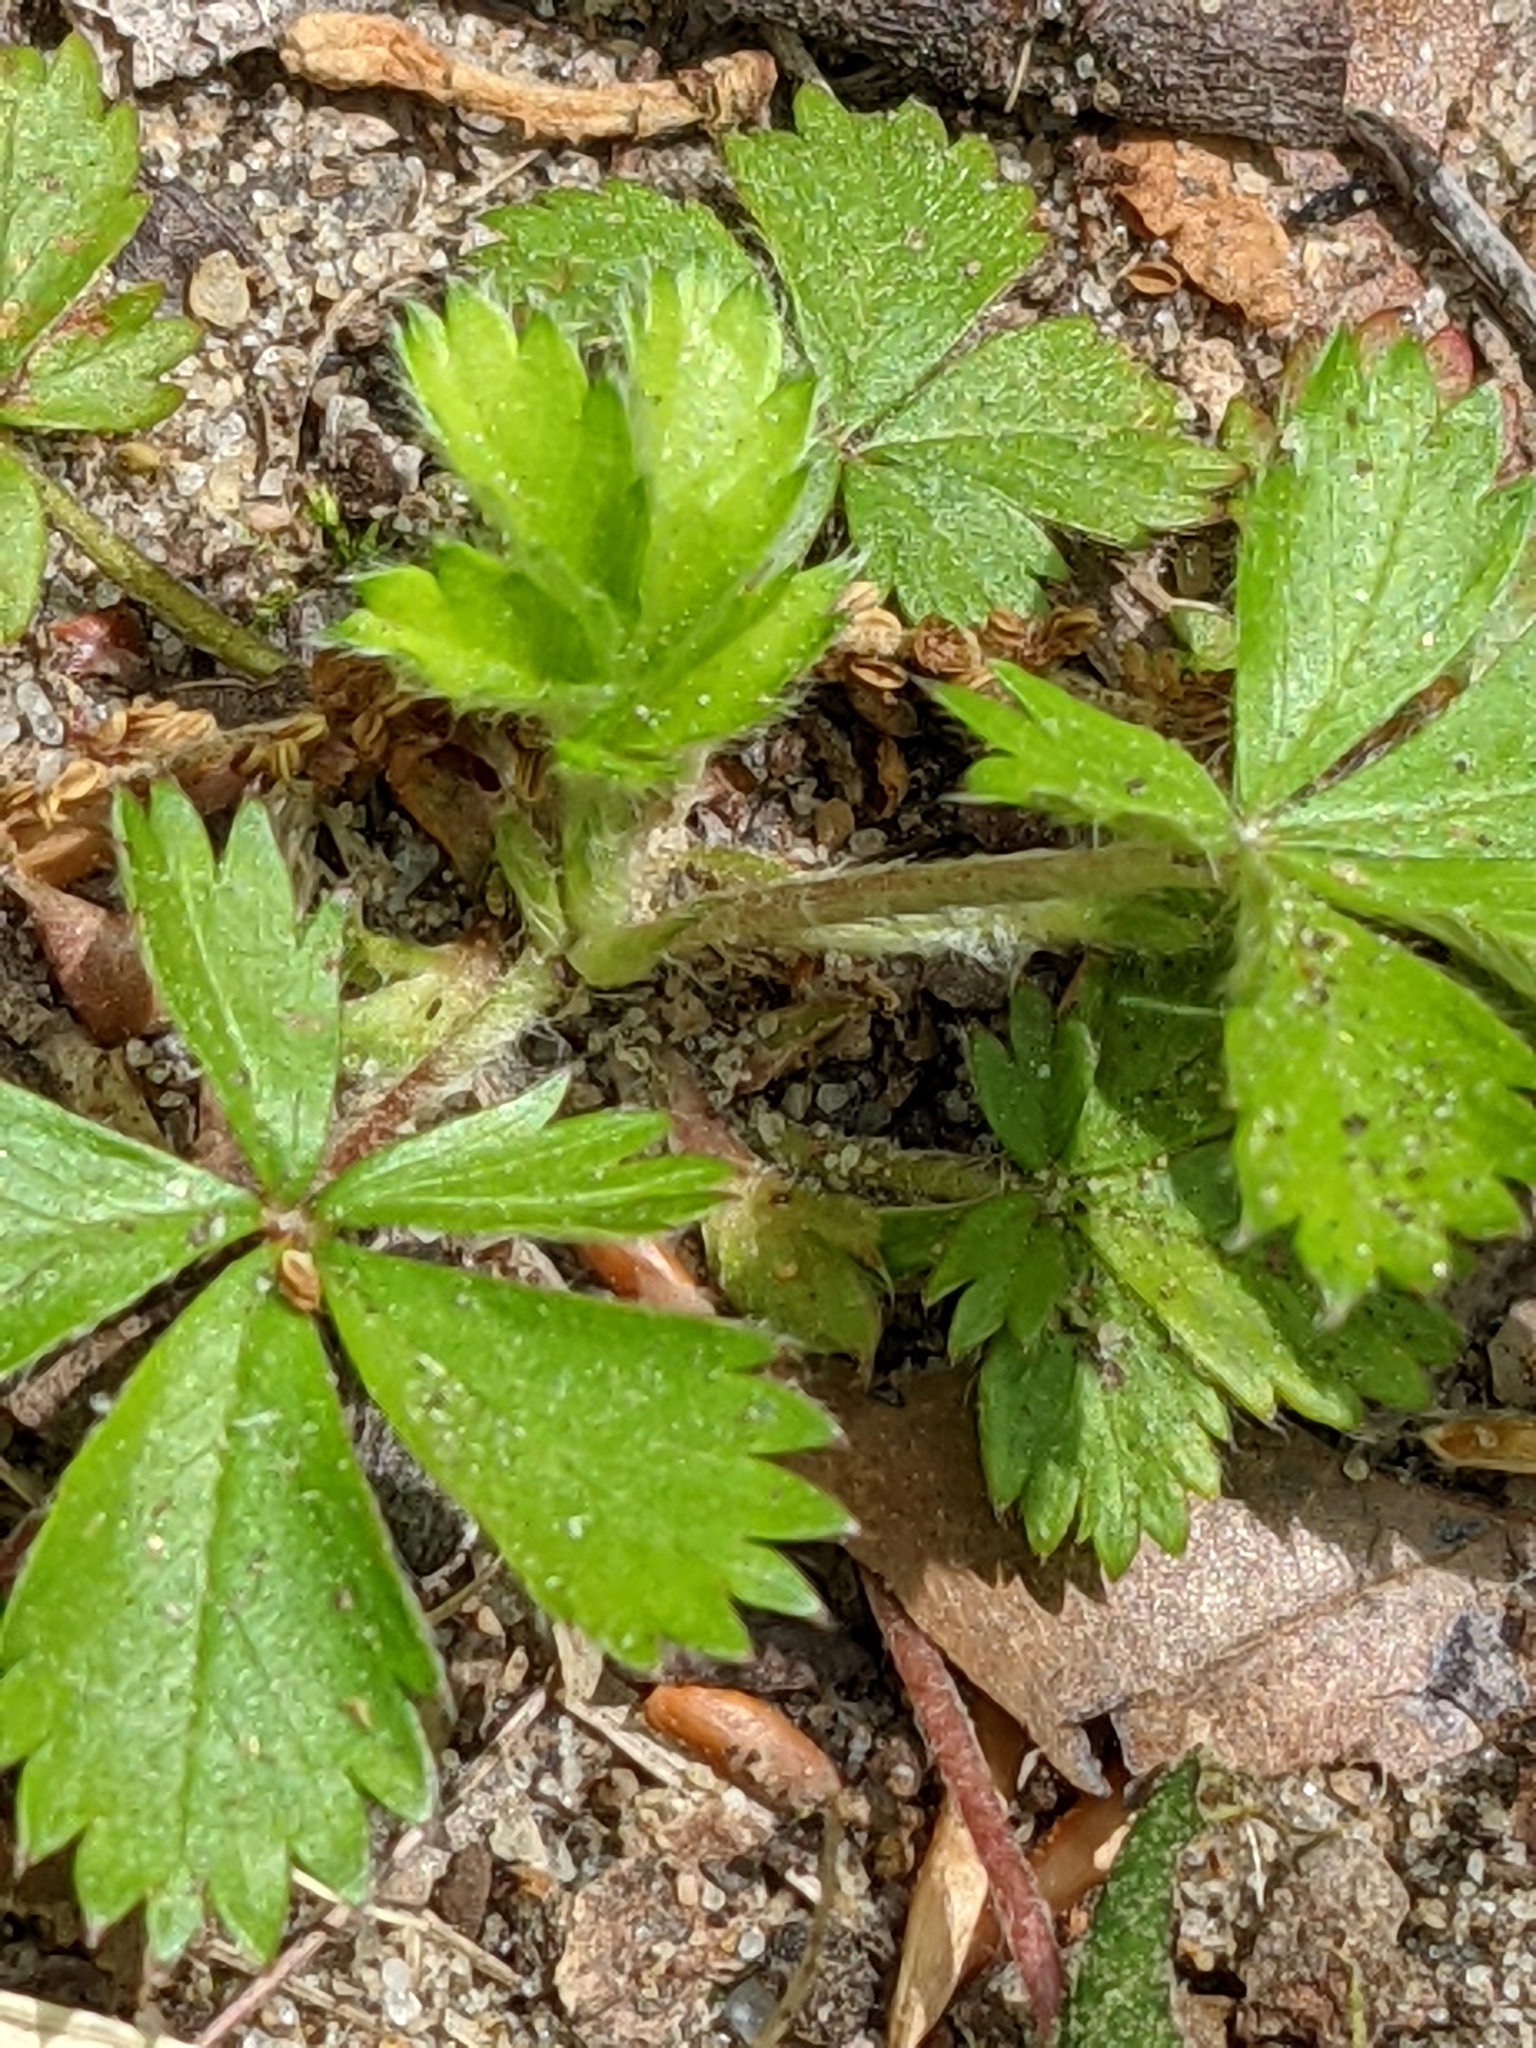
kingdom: Plantae
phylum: Tracheophyta
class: Magnoliopsida
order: Rosales
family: Rosaceae
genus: Potentilla
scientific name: Potentilla canadensis
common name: Canada cinquefoil
